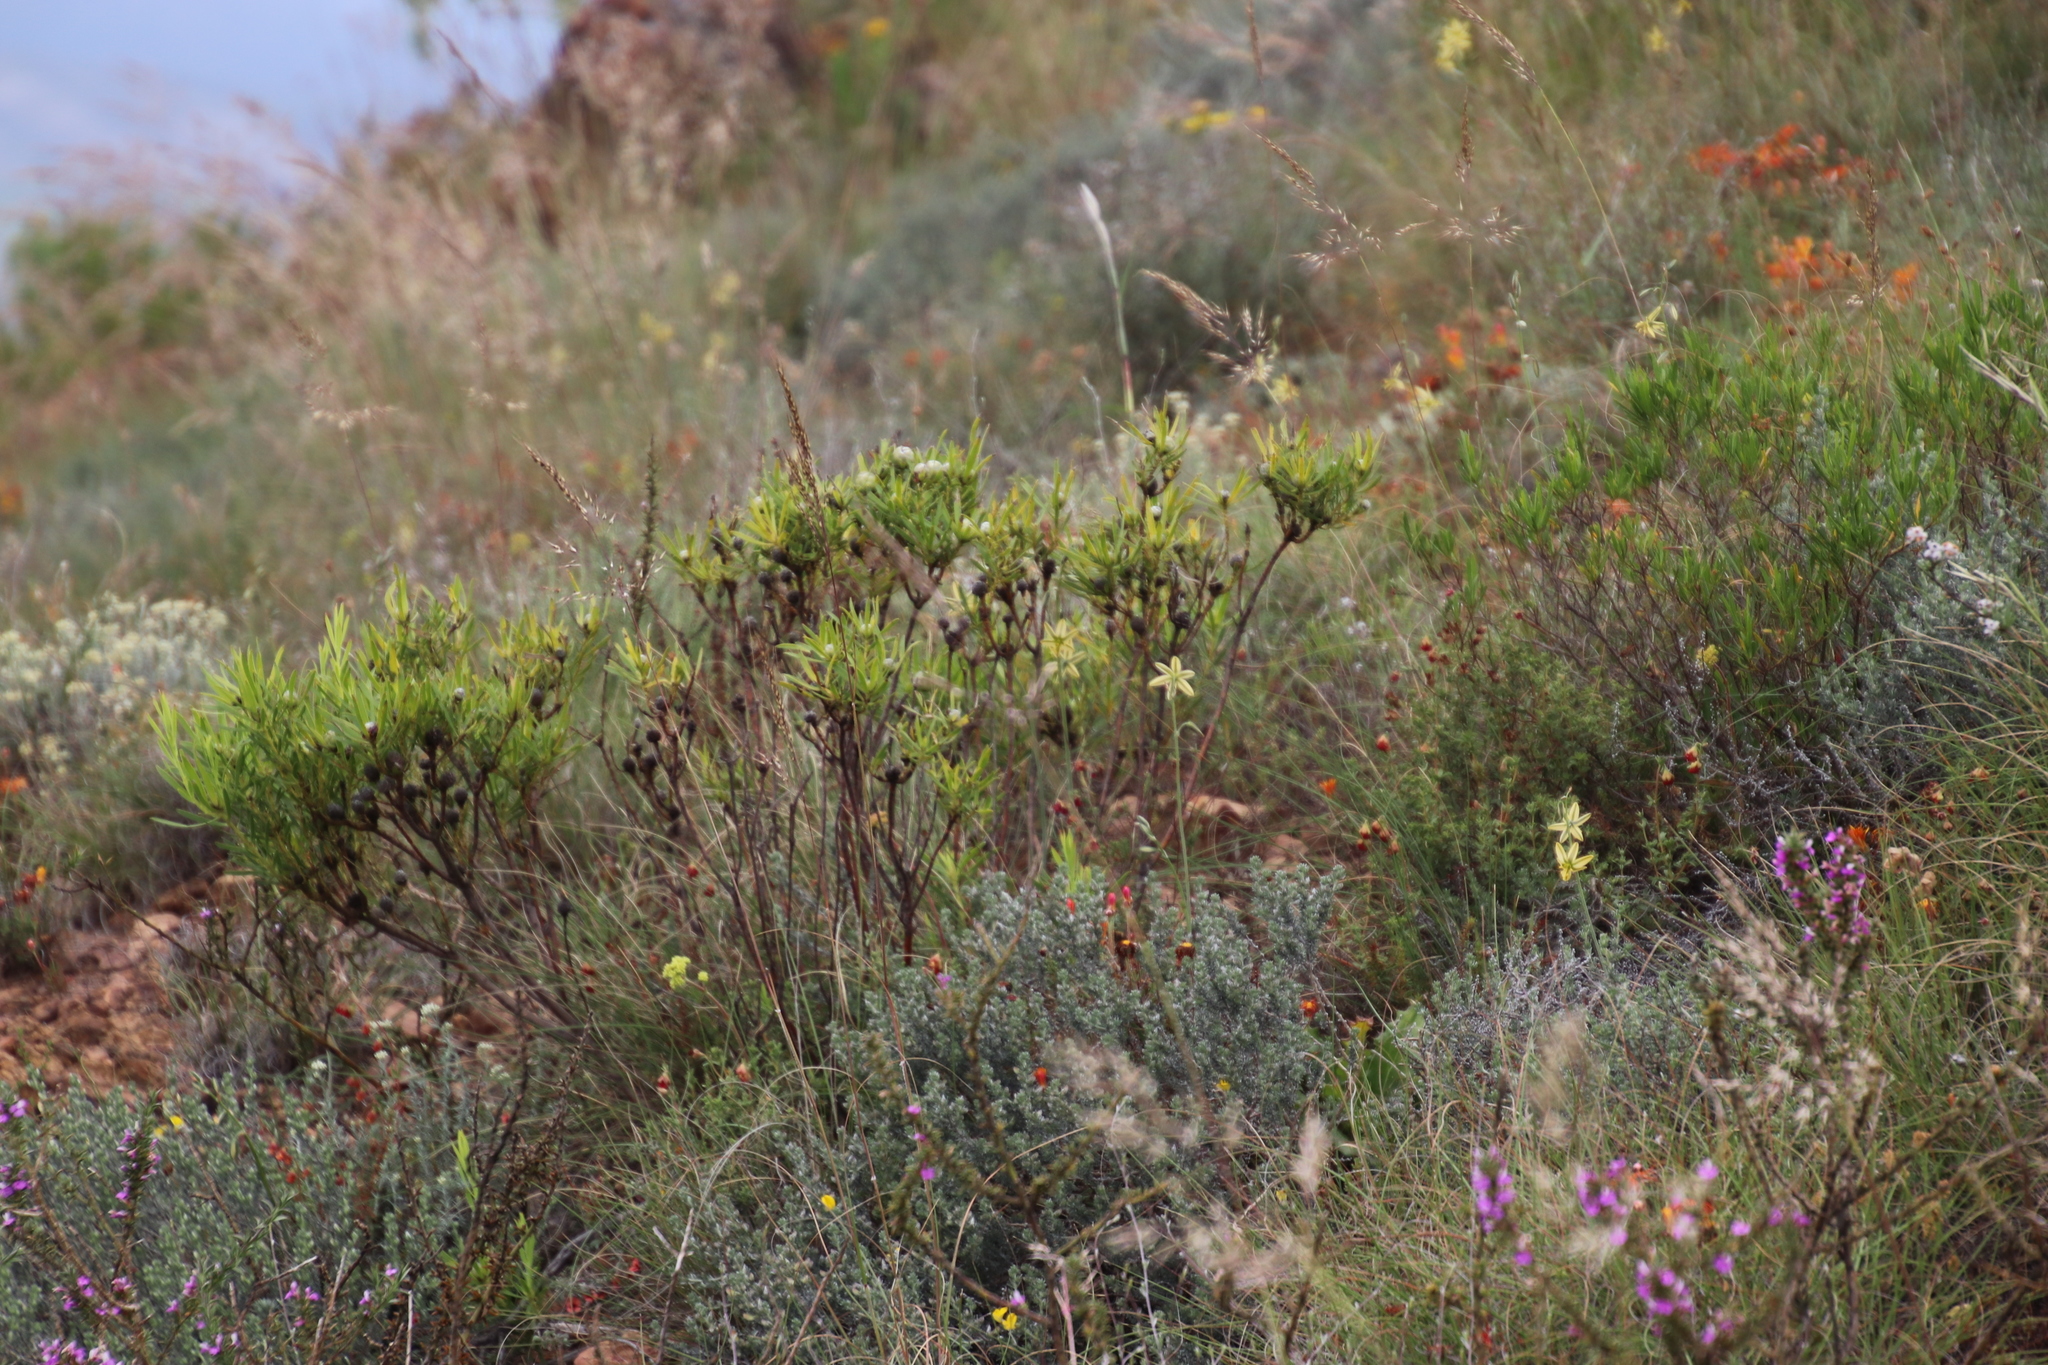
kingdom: Plantae
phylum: Tracheophyta
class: Magnoliopsida
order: Proteales
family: Proteaceae
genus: Leucadendron
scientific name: Leucadendron salignum
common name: Common sunshine conebush
